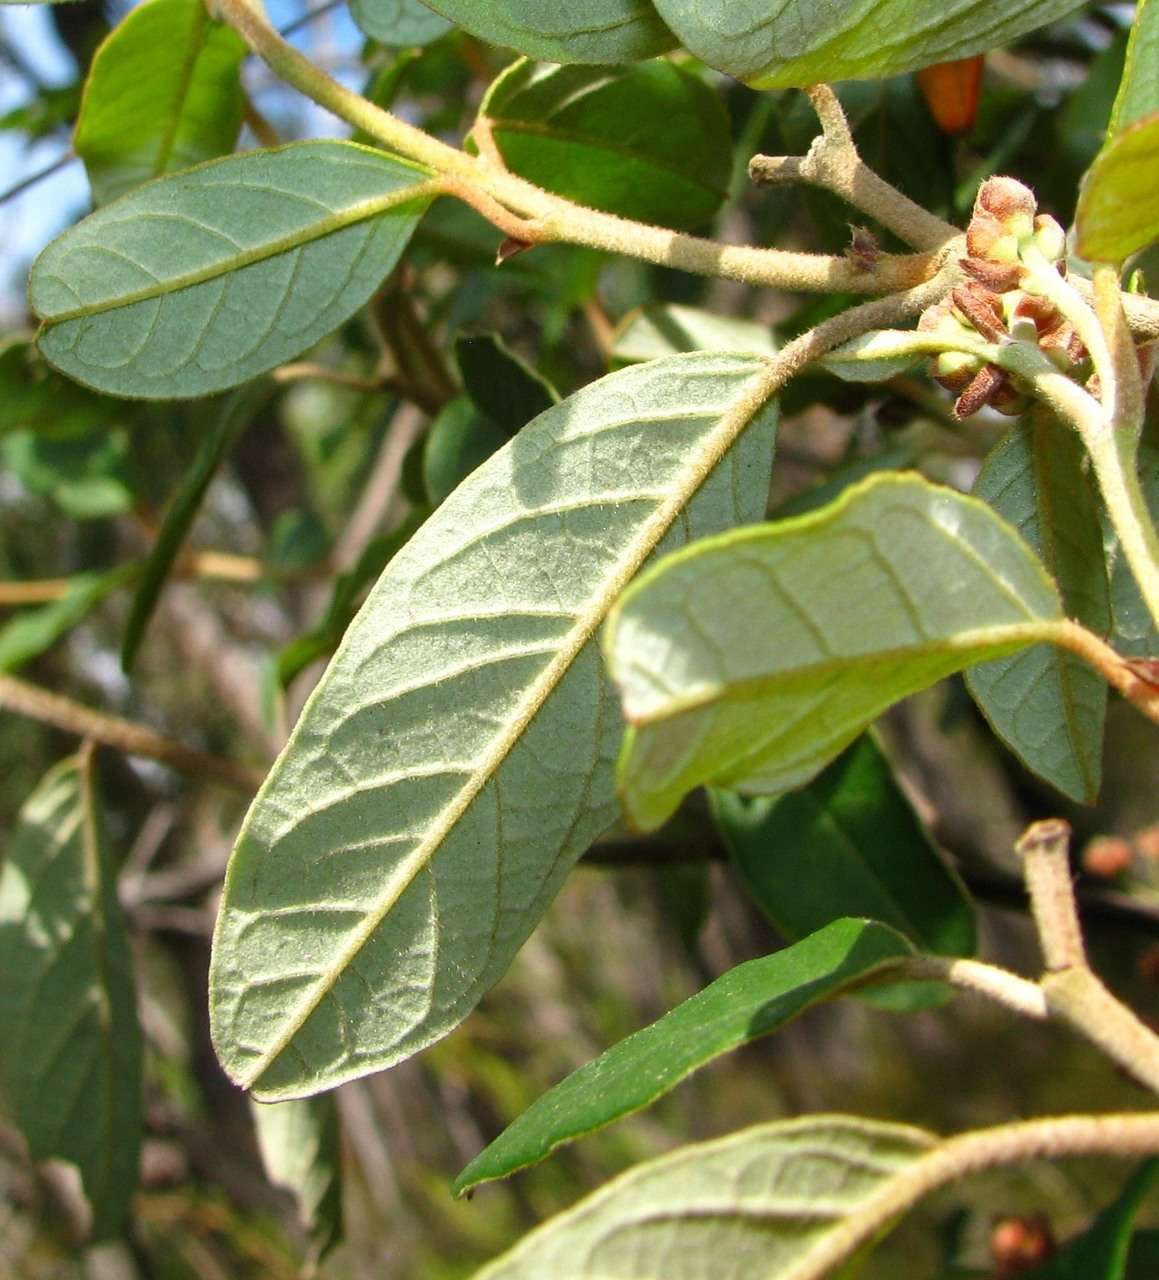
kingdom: Plantae
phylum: Tracheophyta
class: Magnoliopsida
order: Rosales
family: Rhamnaceae
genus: Pomaderris
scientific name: Pomaderris elliptica
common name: Yellow-dogwood
